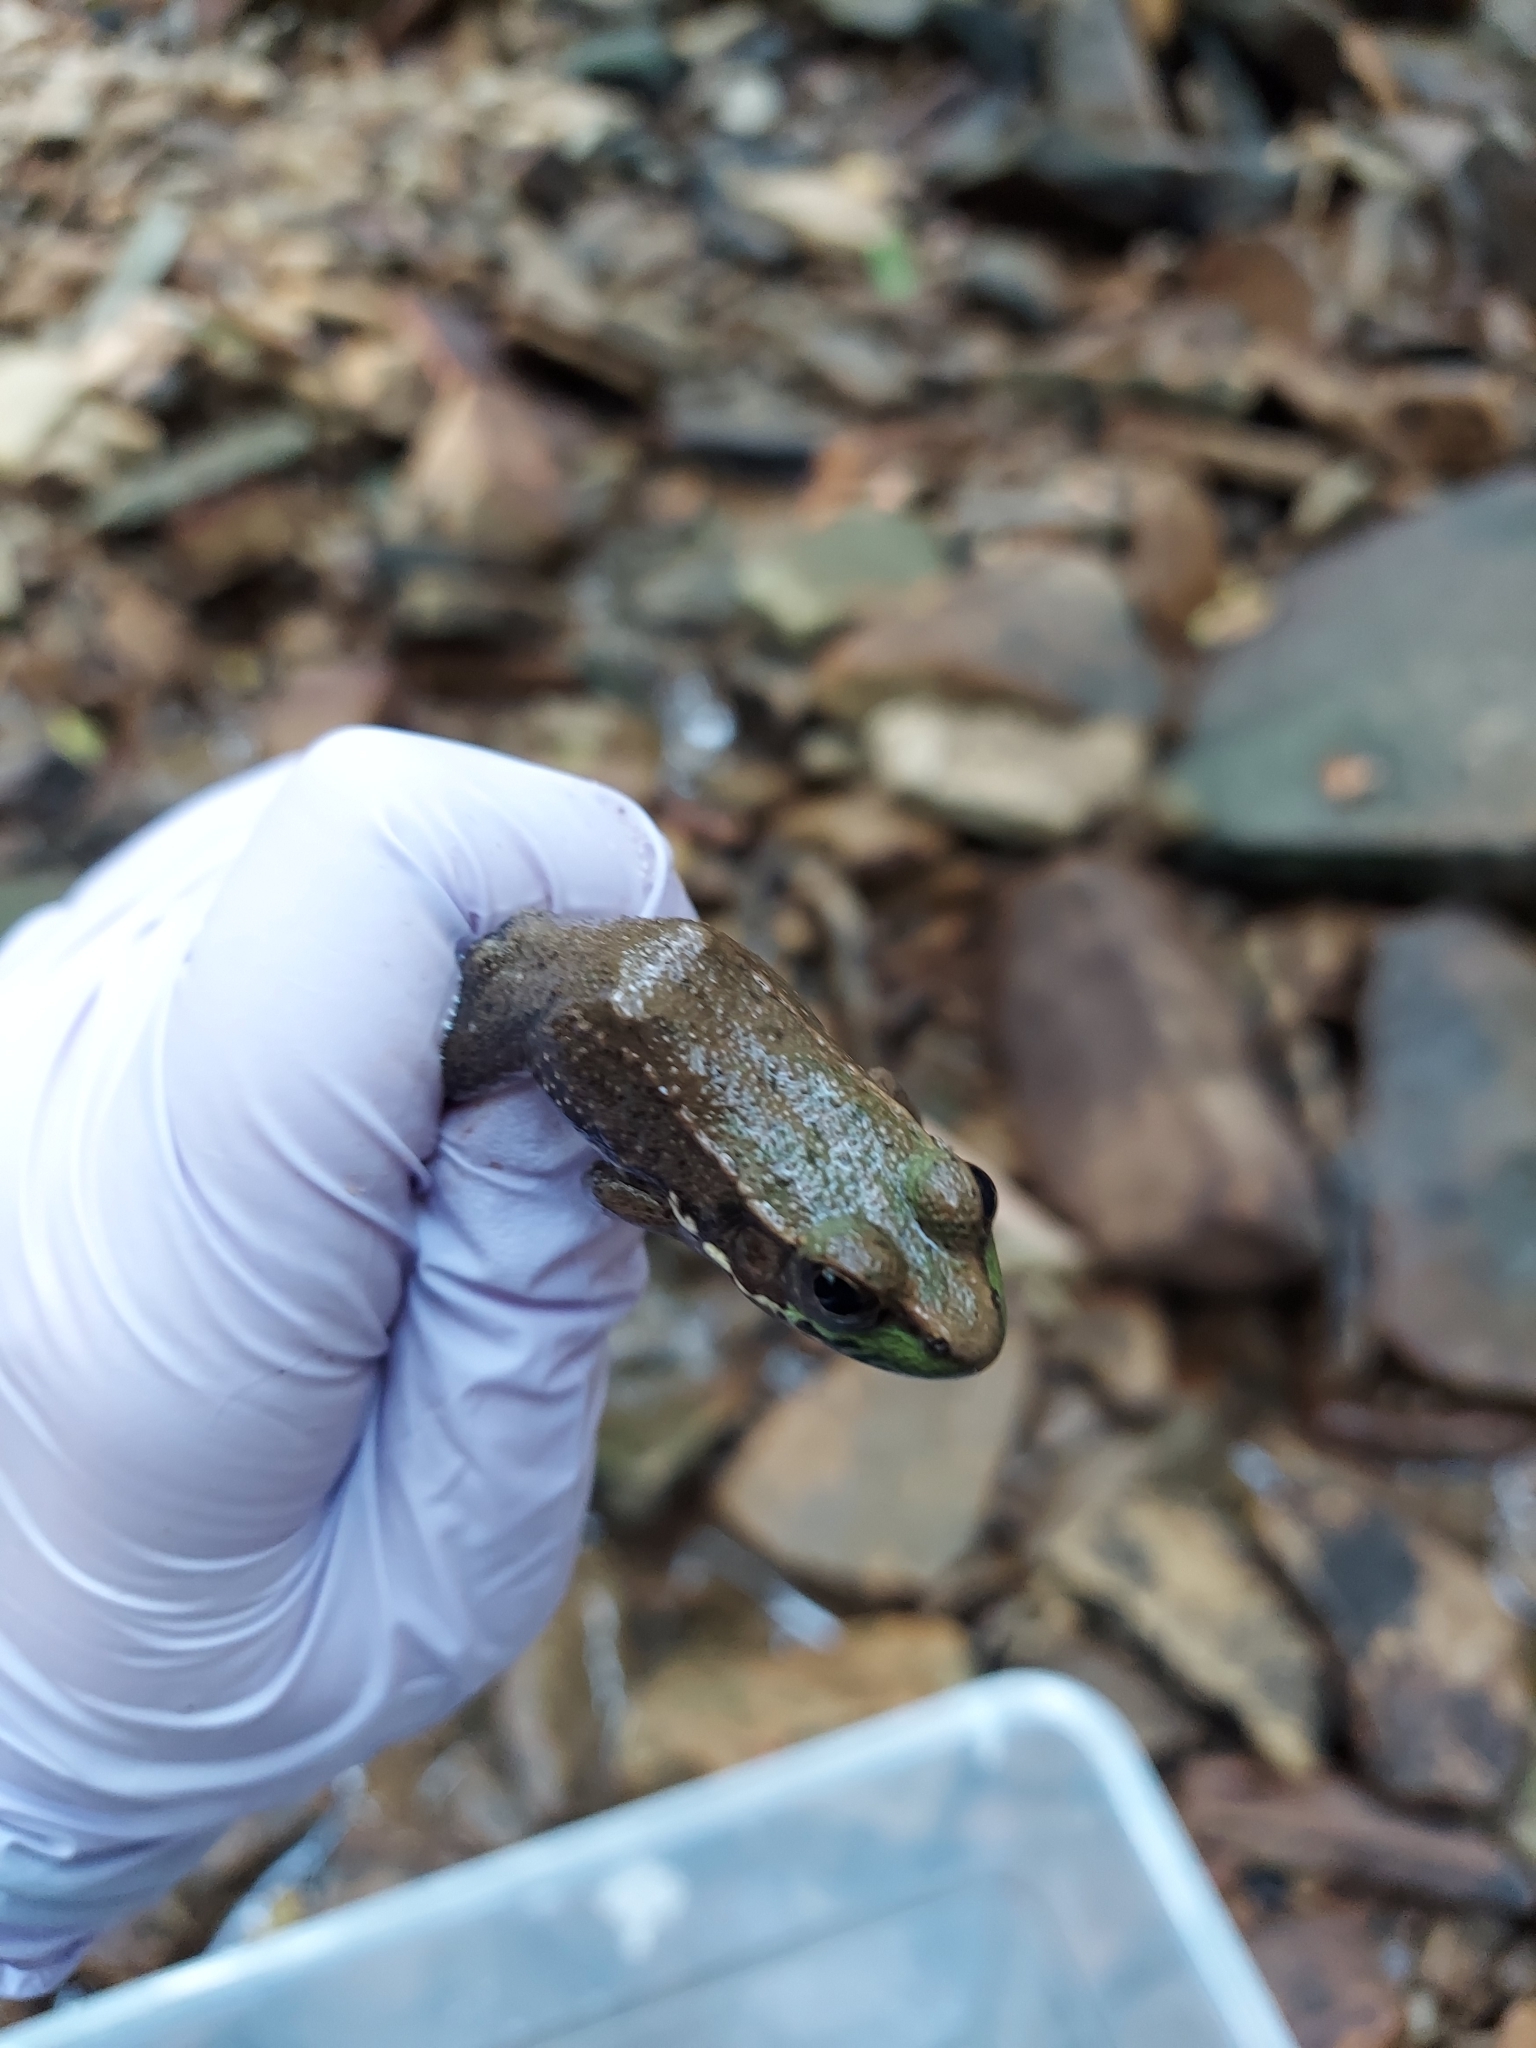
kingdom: Animalia
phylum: Chordata
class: Amphibia
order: Anura
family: Ranidae
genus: Lithobates
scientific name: Lithobates clamitans
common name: Green frog
